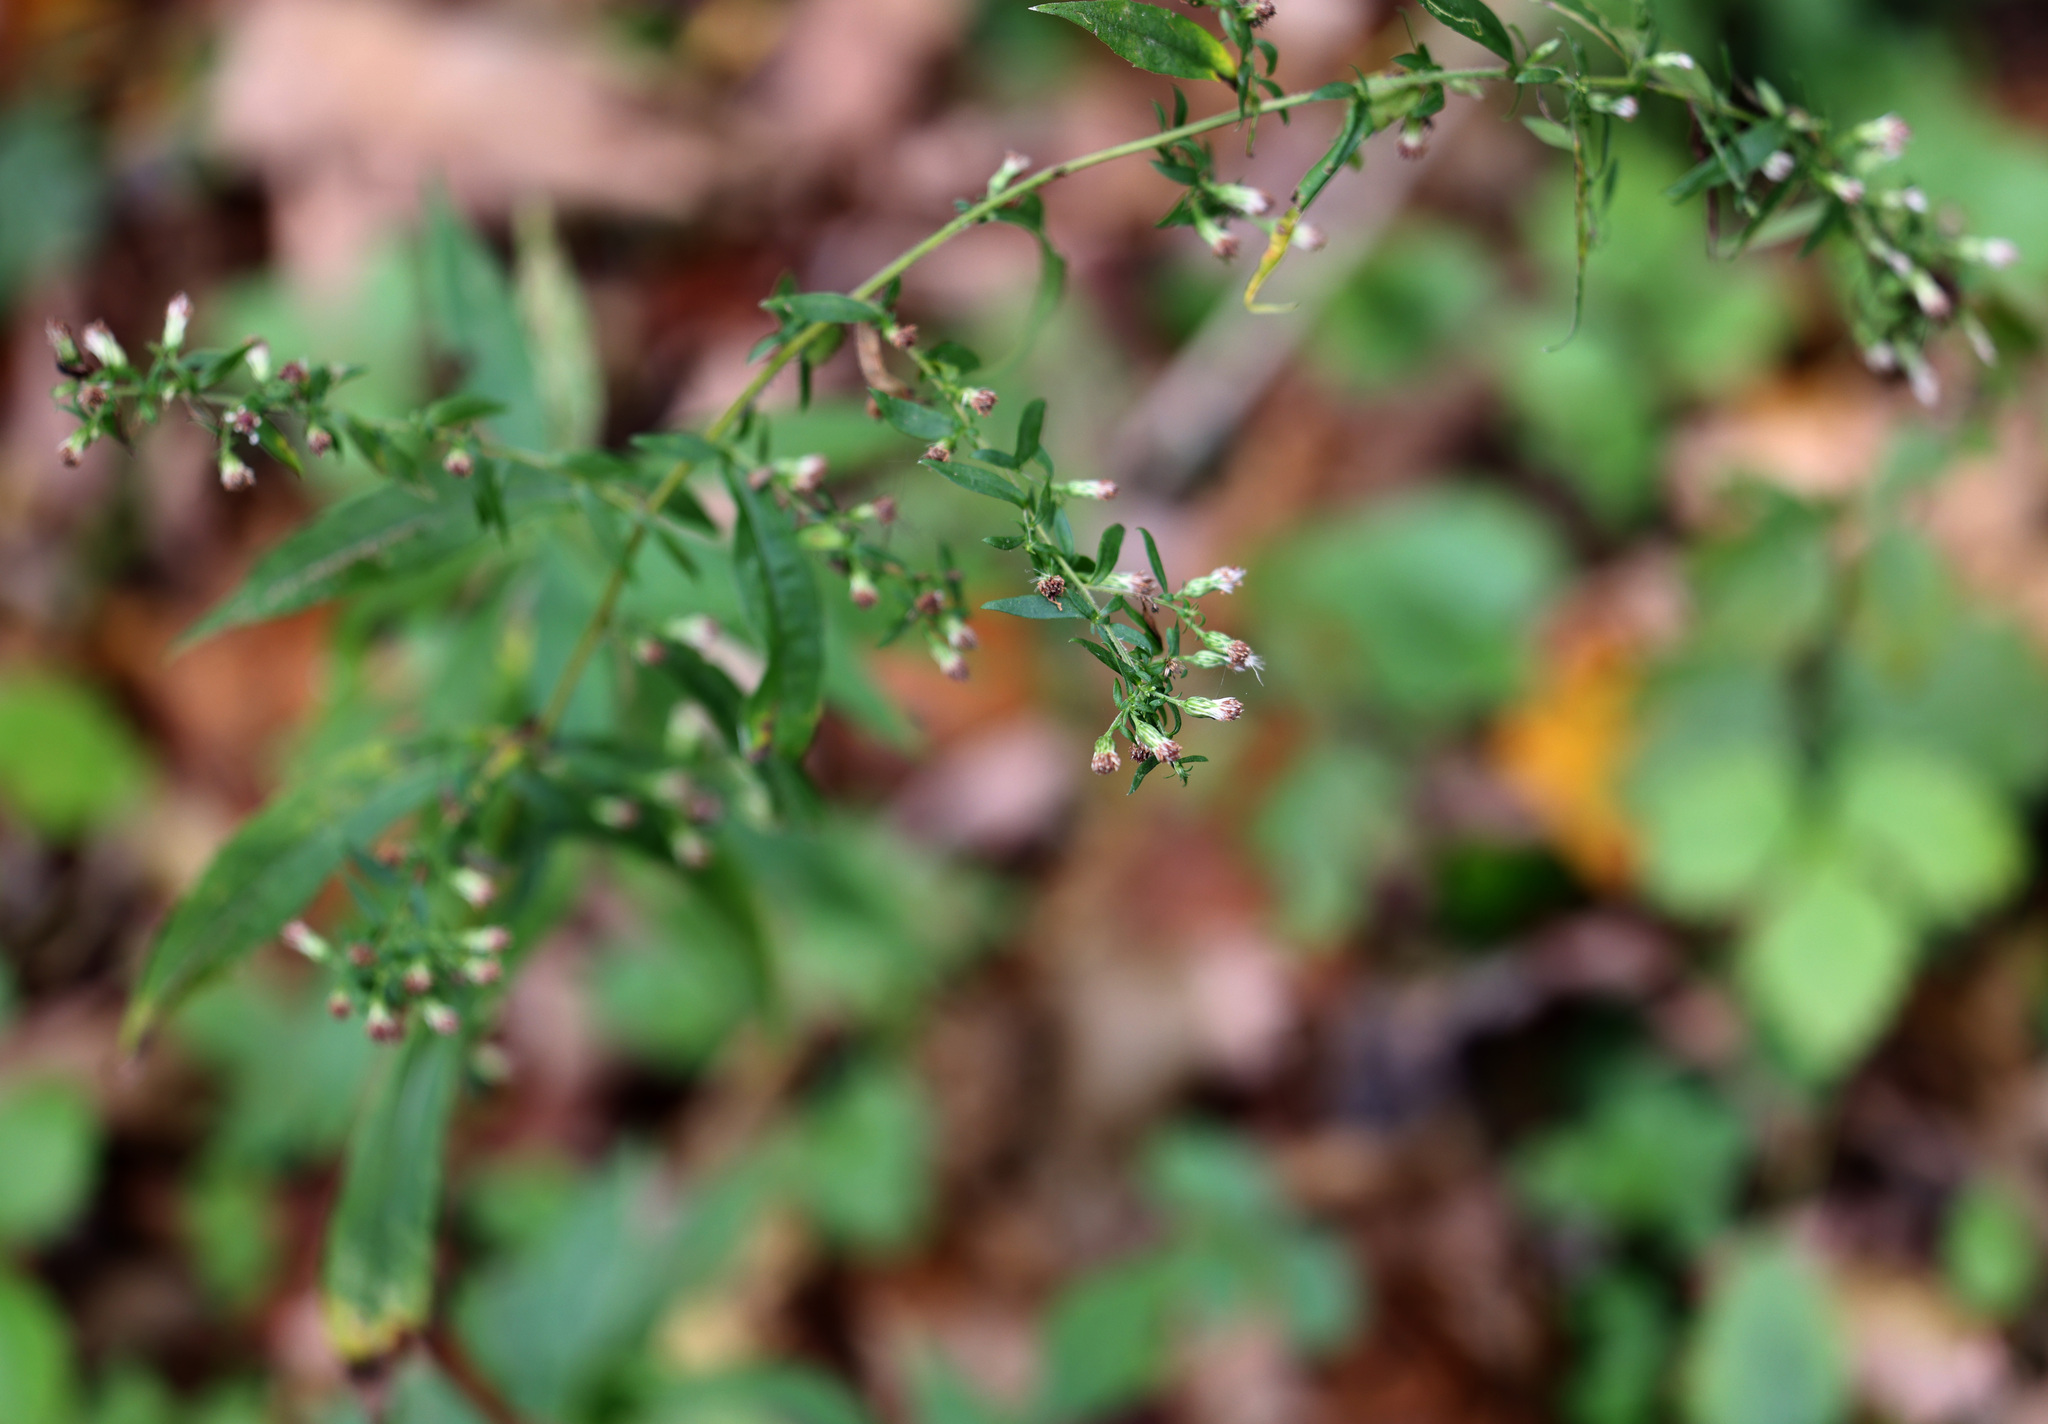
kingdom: Plantae
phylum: Tracheophyta
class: Magnoliopsida
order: Asterales
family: Asteraceae
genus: Symphyotrichum
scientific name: Symphyotrichum lateriflorum
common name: Calico aster
